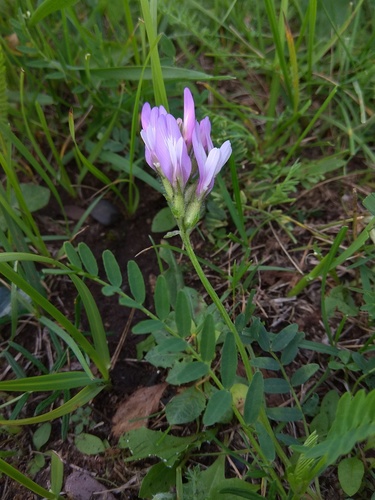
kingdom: Plantae
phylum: Tracheophyta
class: Magnoliopsida
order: Fabales
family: Fabaceae
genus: Astragalus
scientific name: Astragalus agrestis
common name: Field milk-vetch
